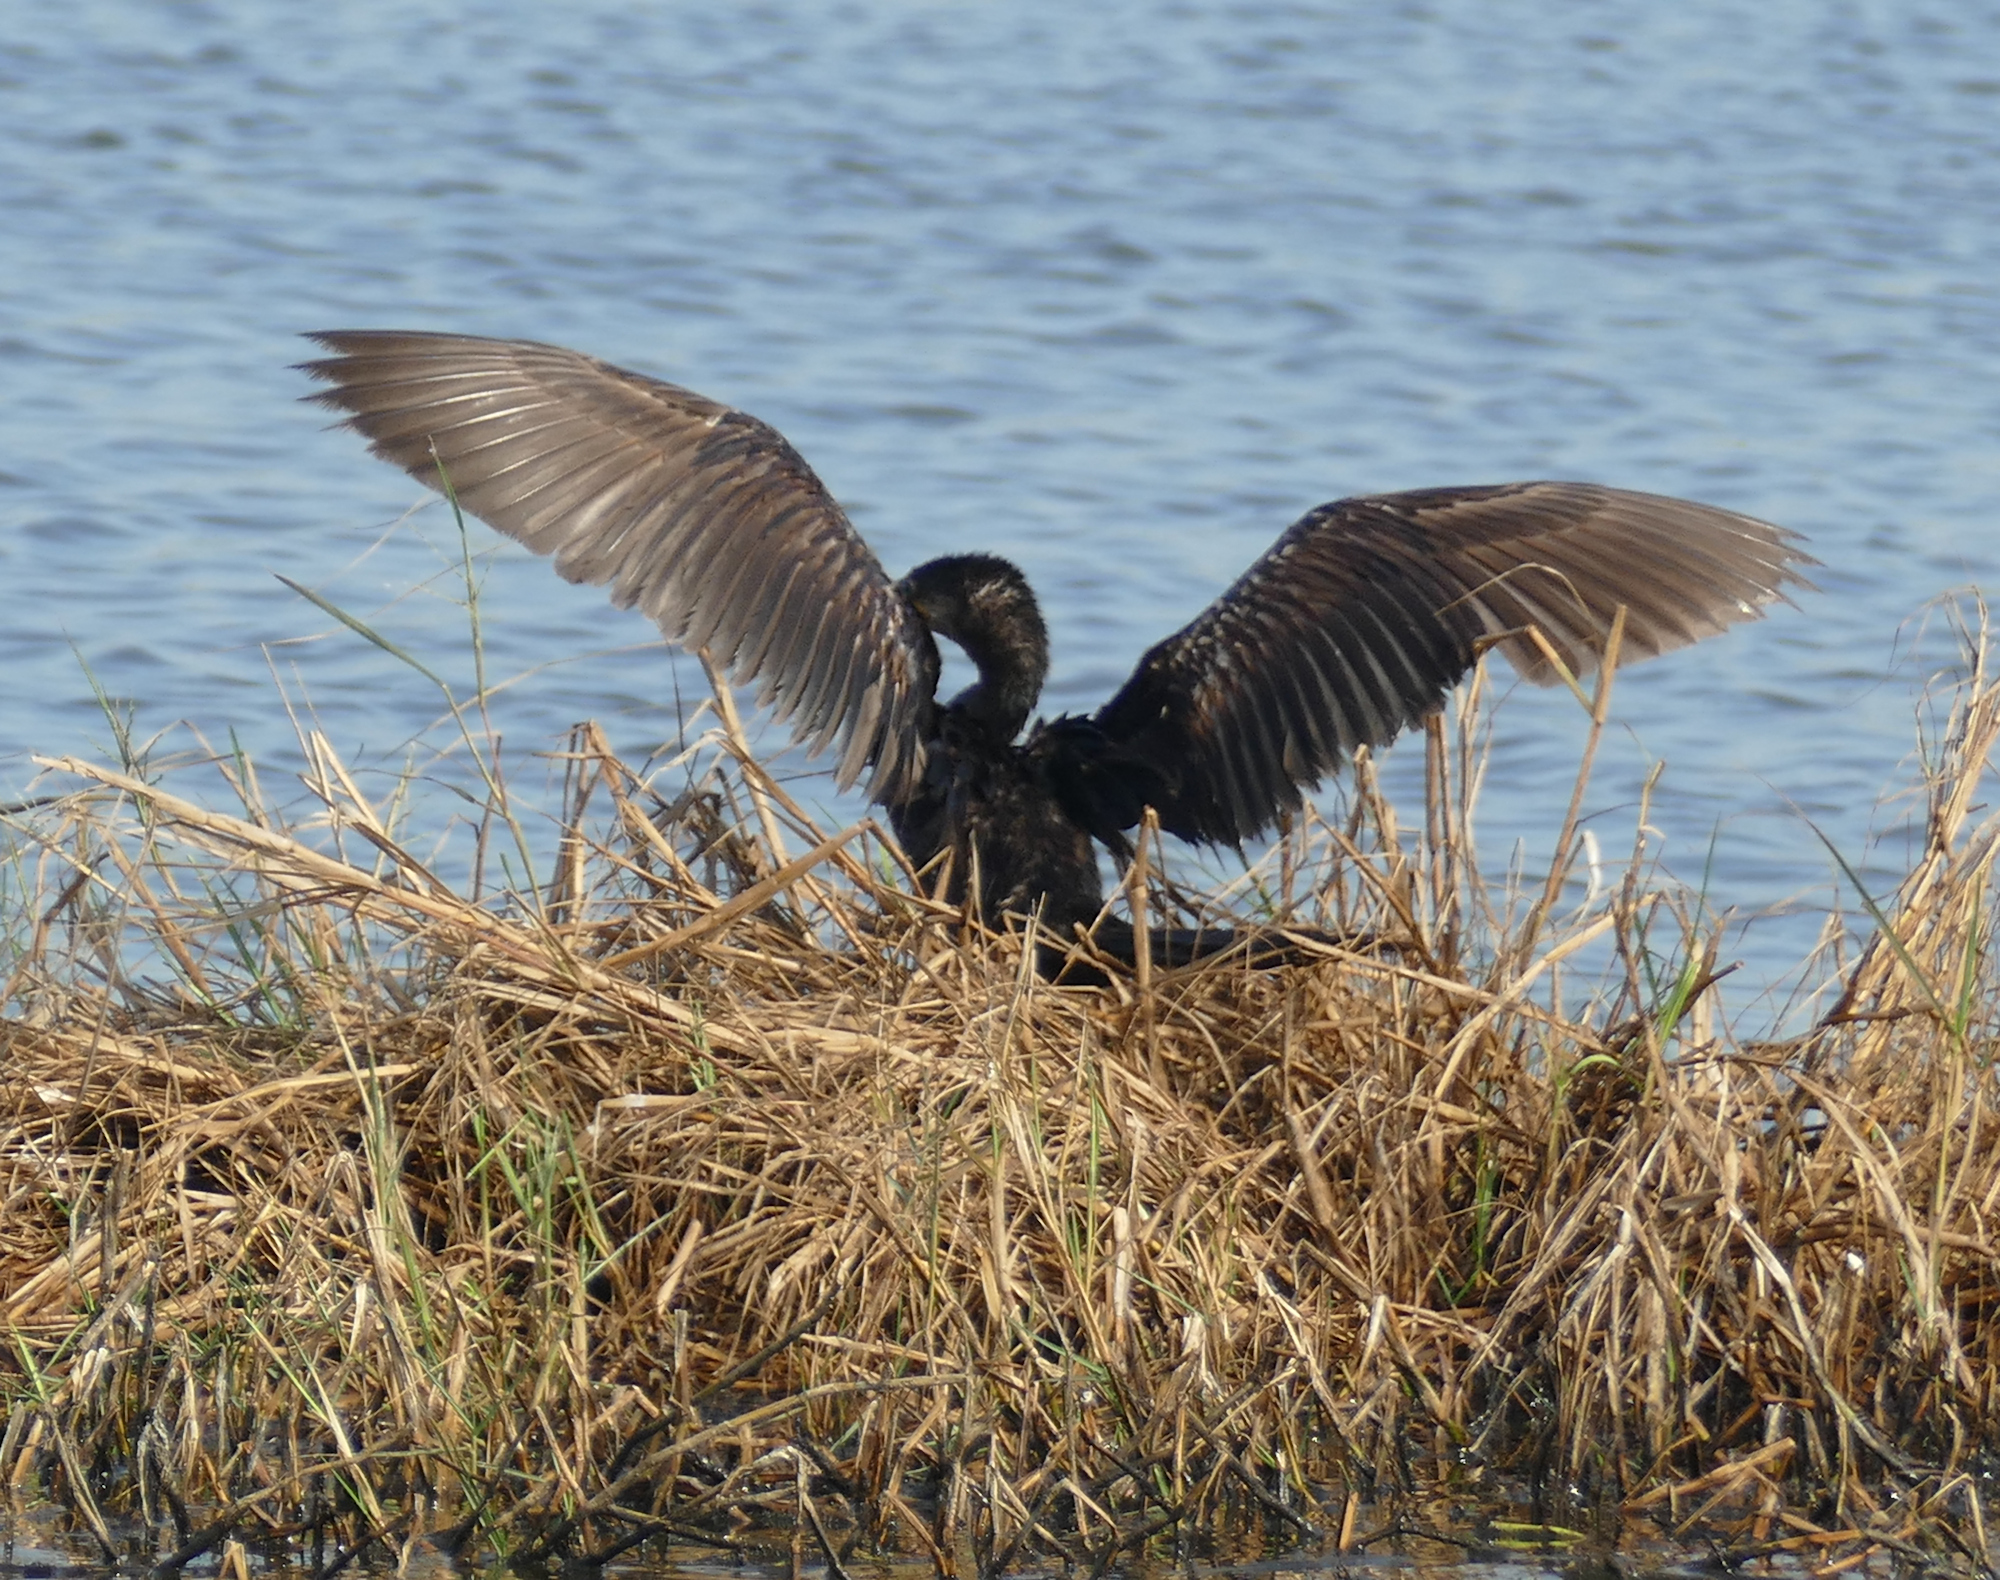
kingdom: Animalia
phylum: Chordata
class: Aves
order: Suliformes
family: Phalacrocoracidae
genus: Phalacrocorax
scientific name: Phalacrocorax brasilianus
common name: Neotropic cormorant
